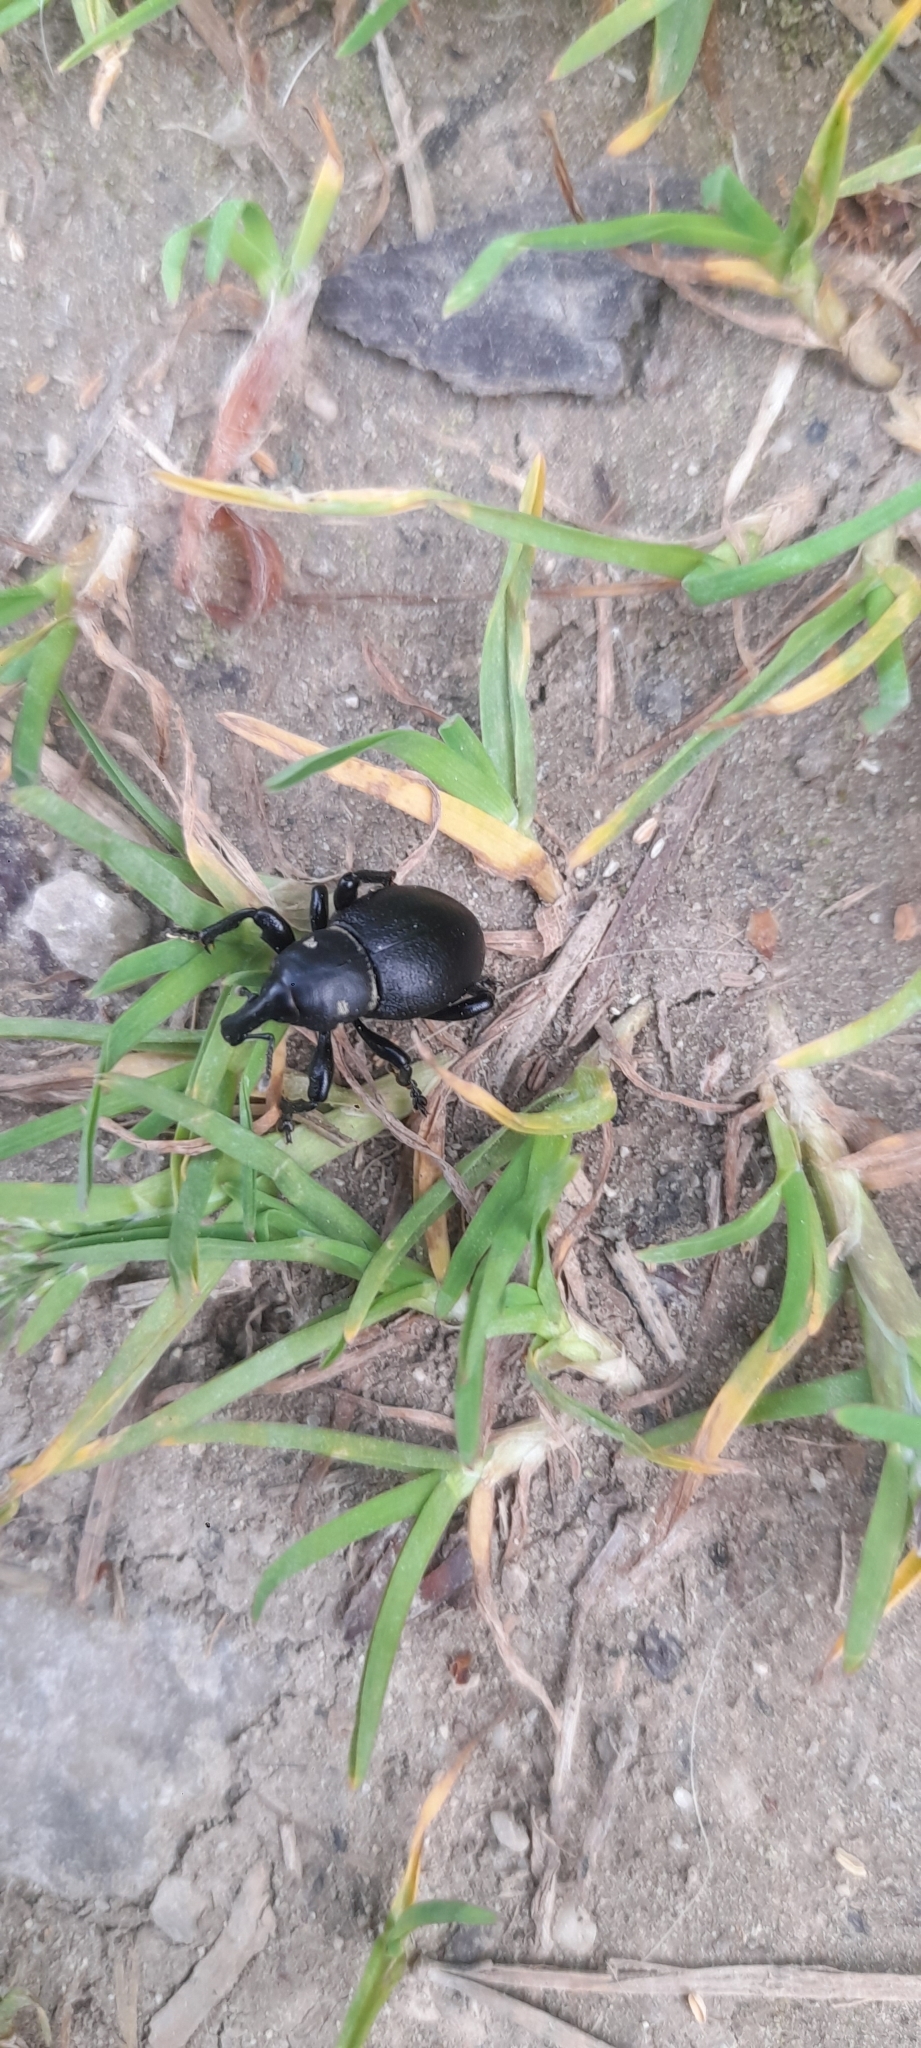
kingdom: Animalia
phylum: Arthropoda
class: Insecta
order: Coleoptera
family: Curculionidae
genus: Liparus
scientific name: Liparus coronatus
